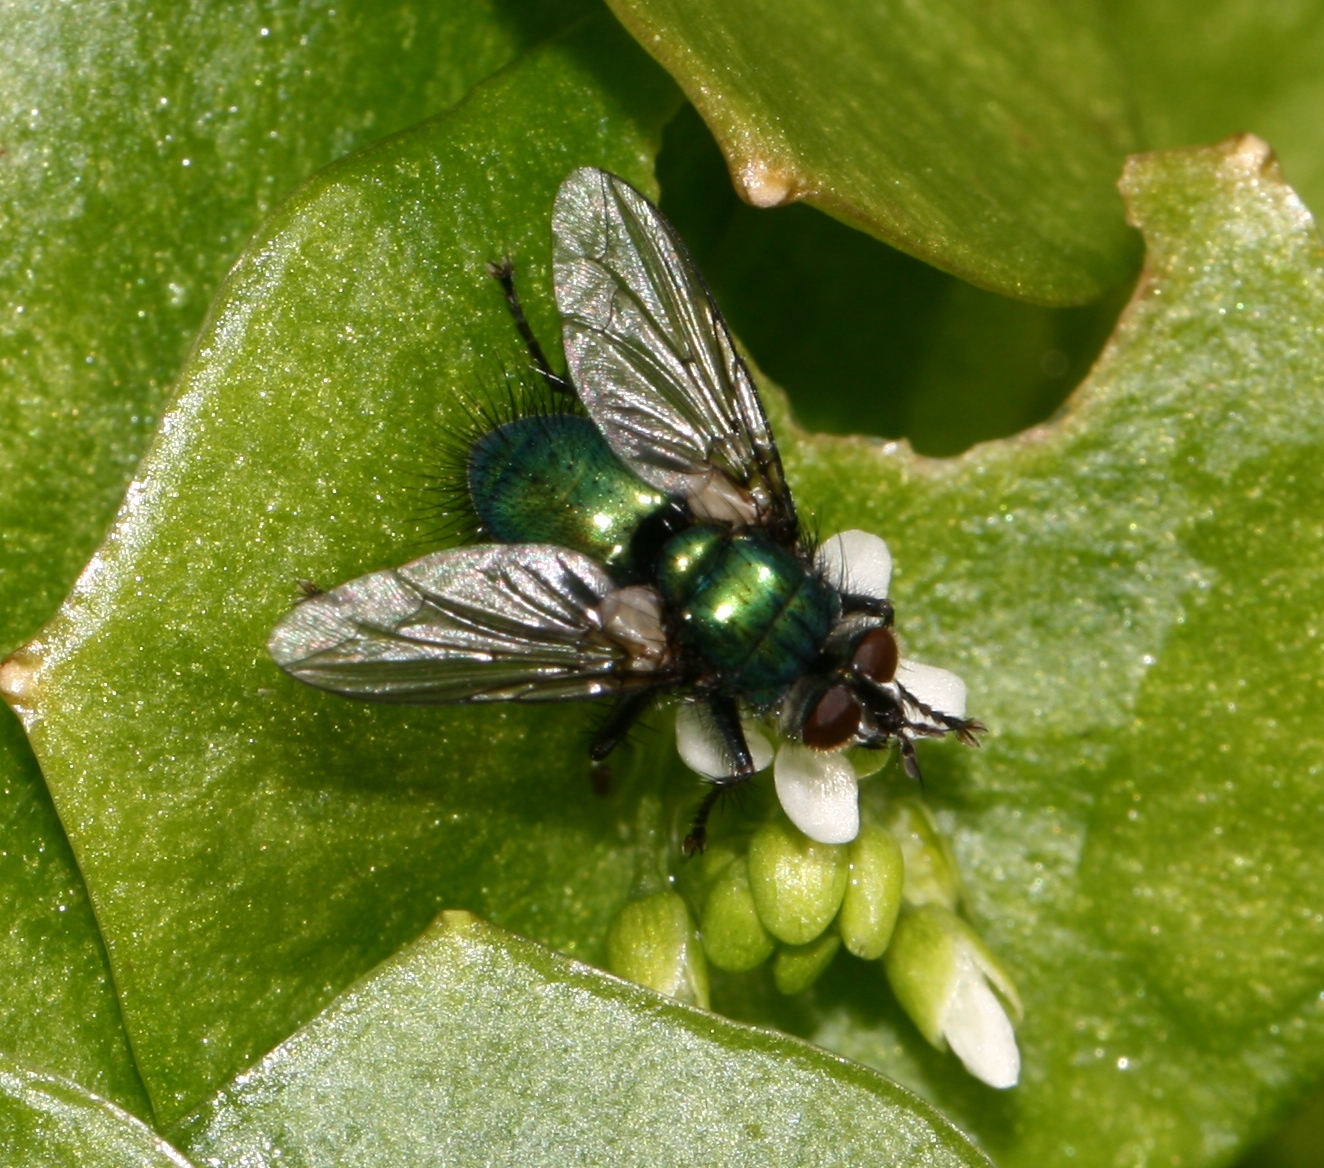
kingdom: Animalia
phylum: Arthropoda
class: Insecta
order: Diptera
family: Tachinidae
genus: Gymnocheta
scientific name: Gymnocheta viridis
